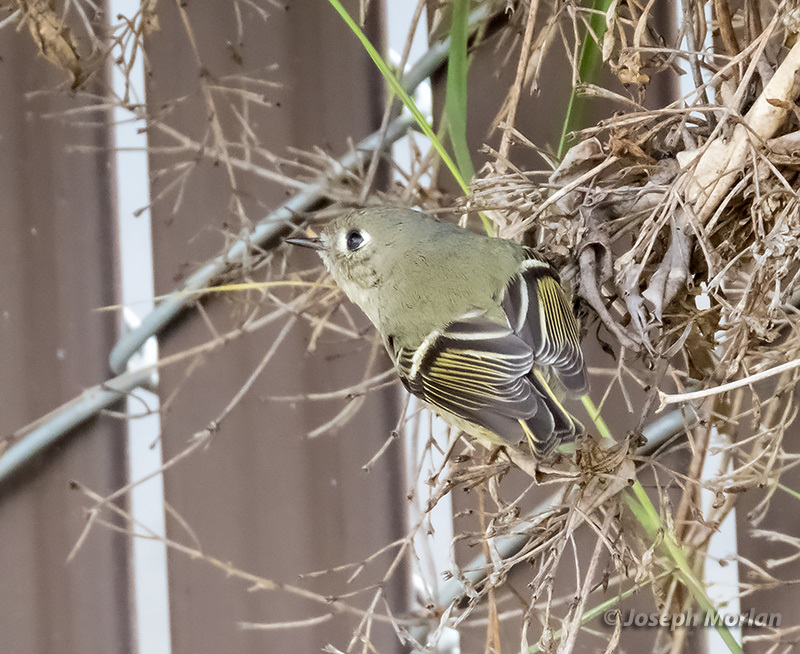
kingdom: Animalia
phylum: Chordata
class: Aves
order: Passeriformes
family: Regulidae
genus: Regulus
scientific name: Regulus calendula
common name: Ruby-crowned kinglet
